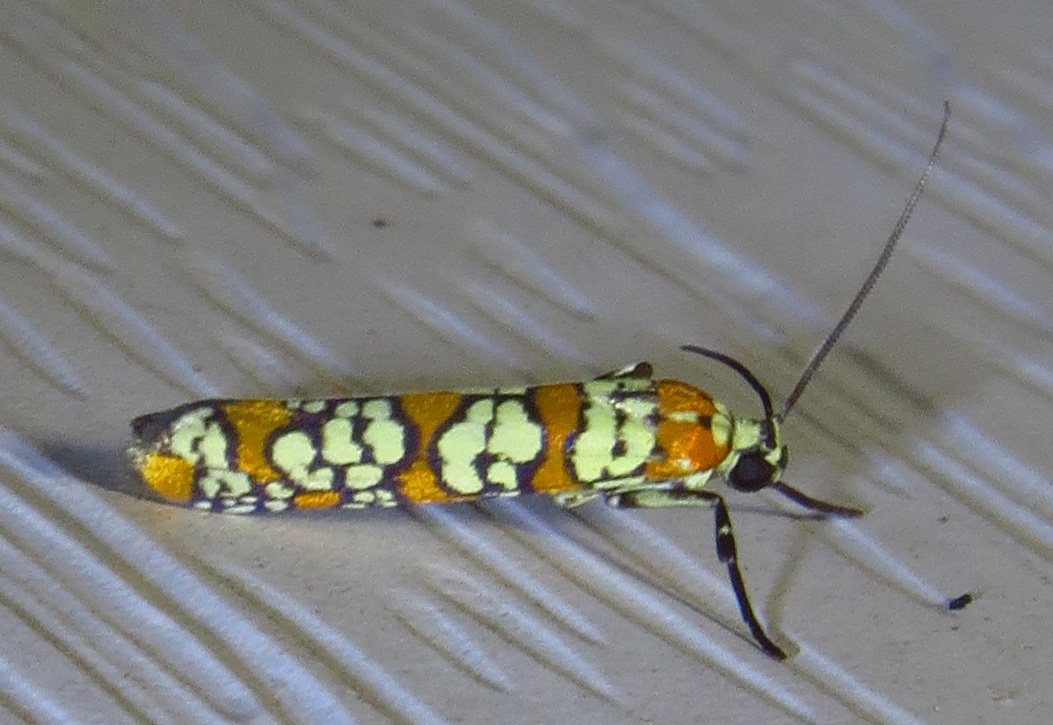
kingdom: Animalia
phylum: Arthropoda
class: Insecta
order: Lepidoptera
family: Attevidae
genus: Atteva
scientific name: Atteva punctella
